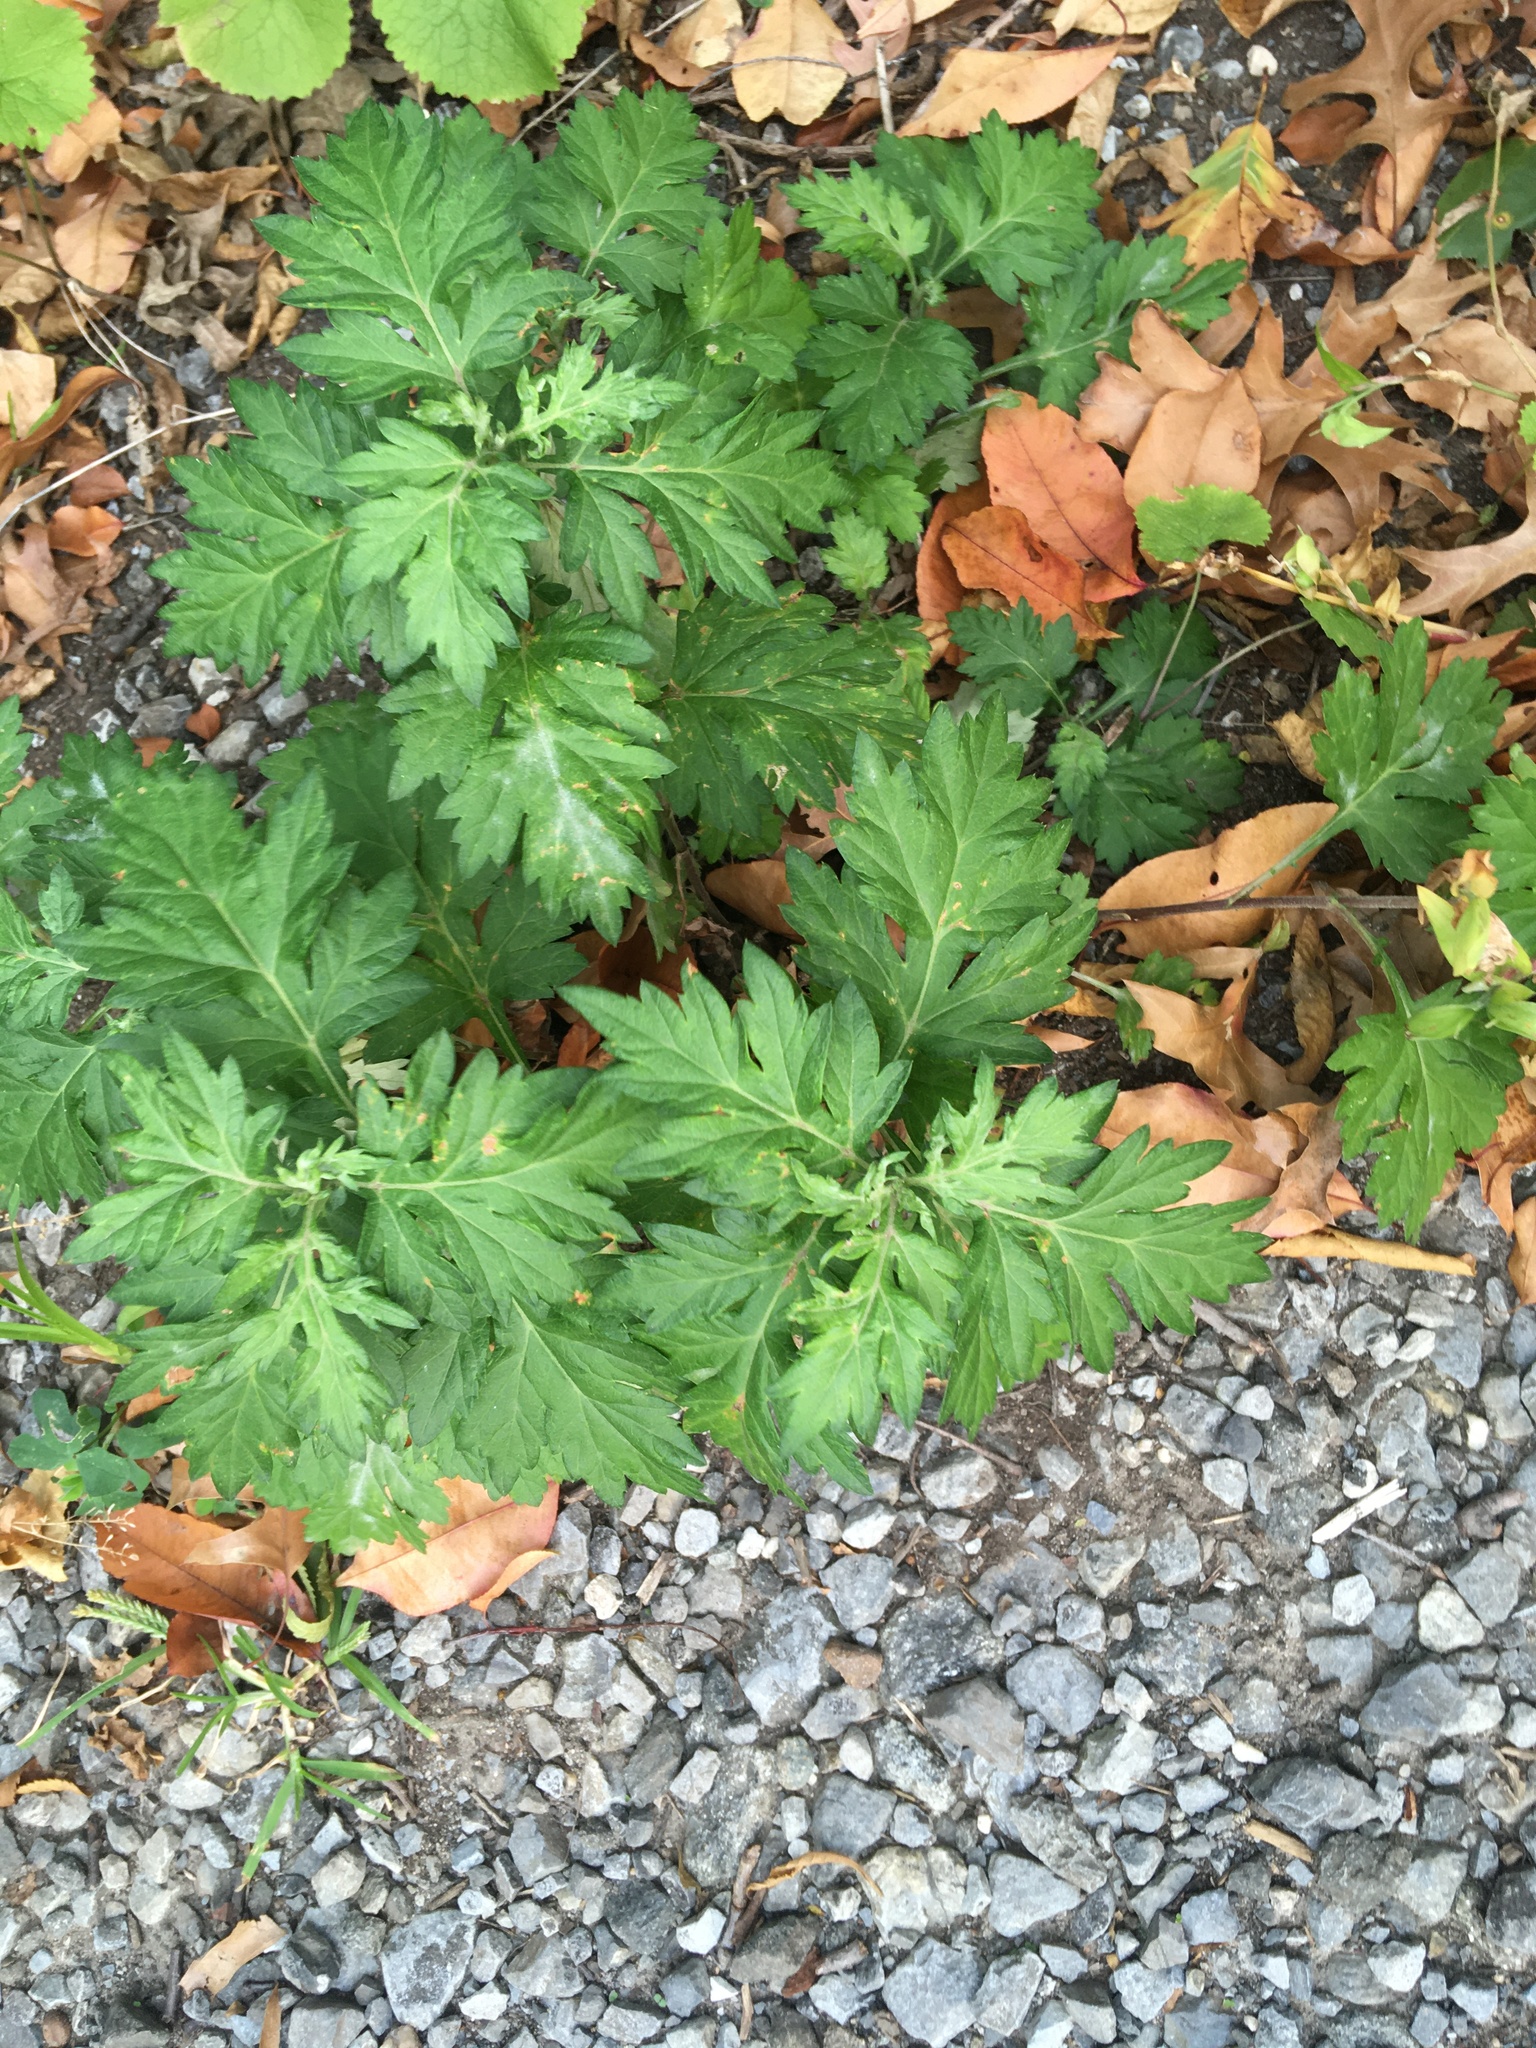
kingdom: Plantae
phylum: Tracheophyta
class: Magnoliopsida
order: Asterales
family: Asteraceae
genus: Artemisia
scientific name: Artemisia vulgaris
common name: Mugwort
